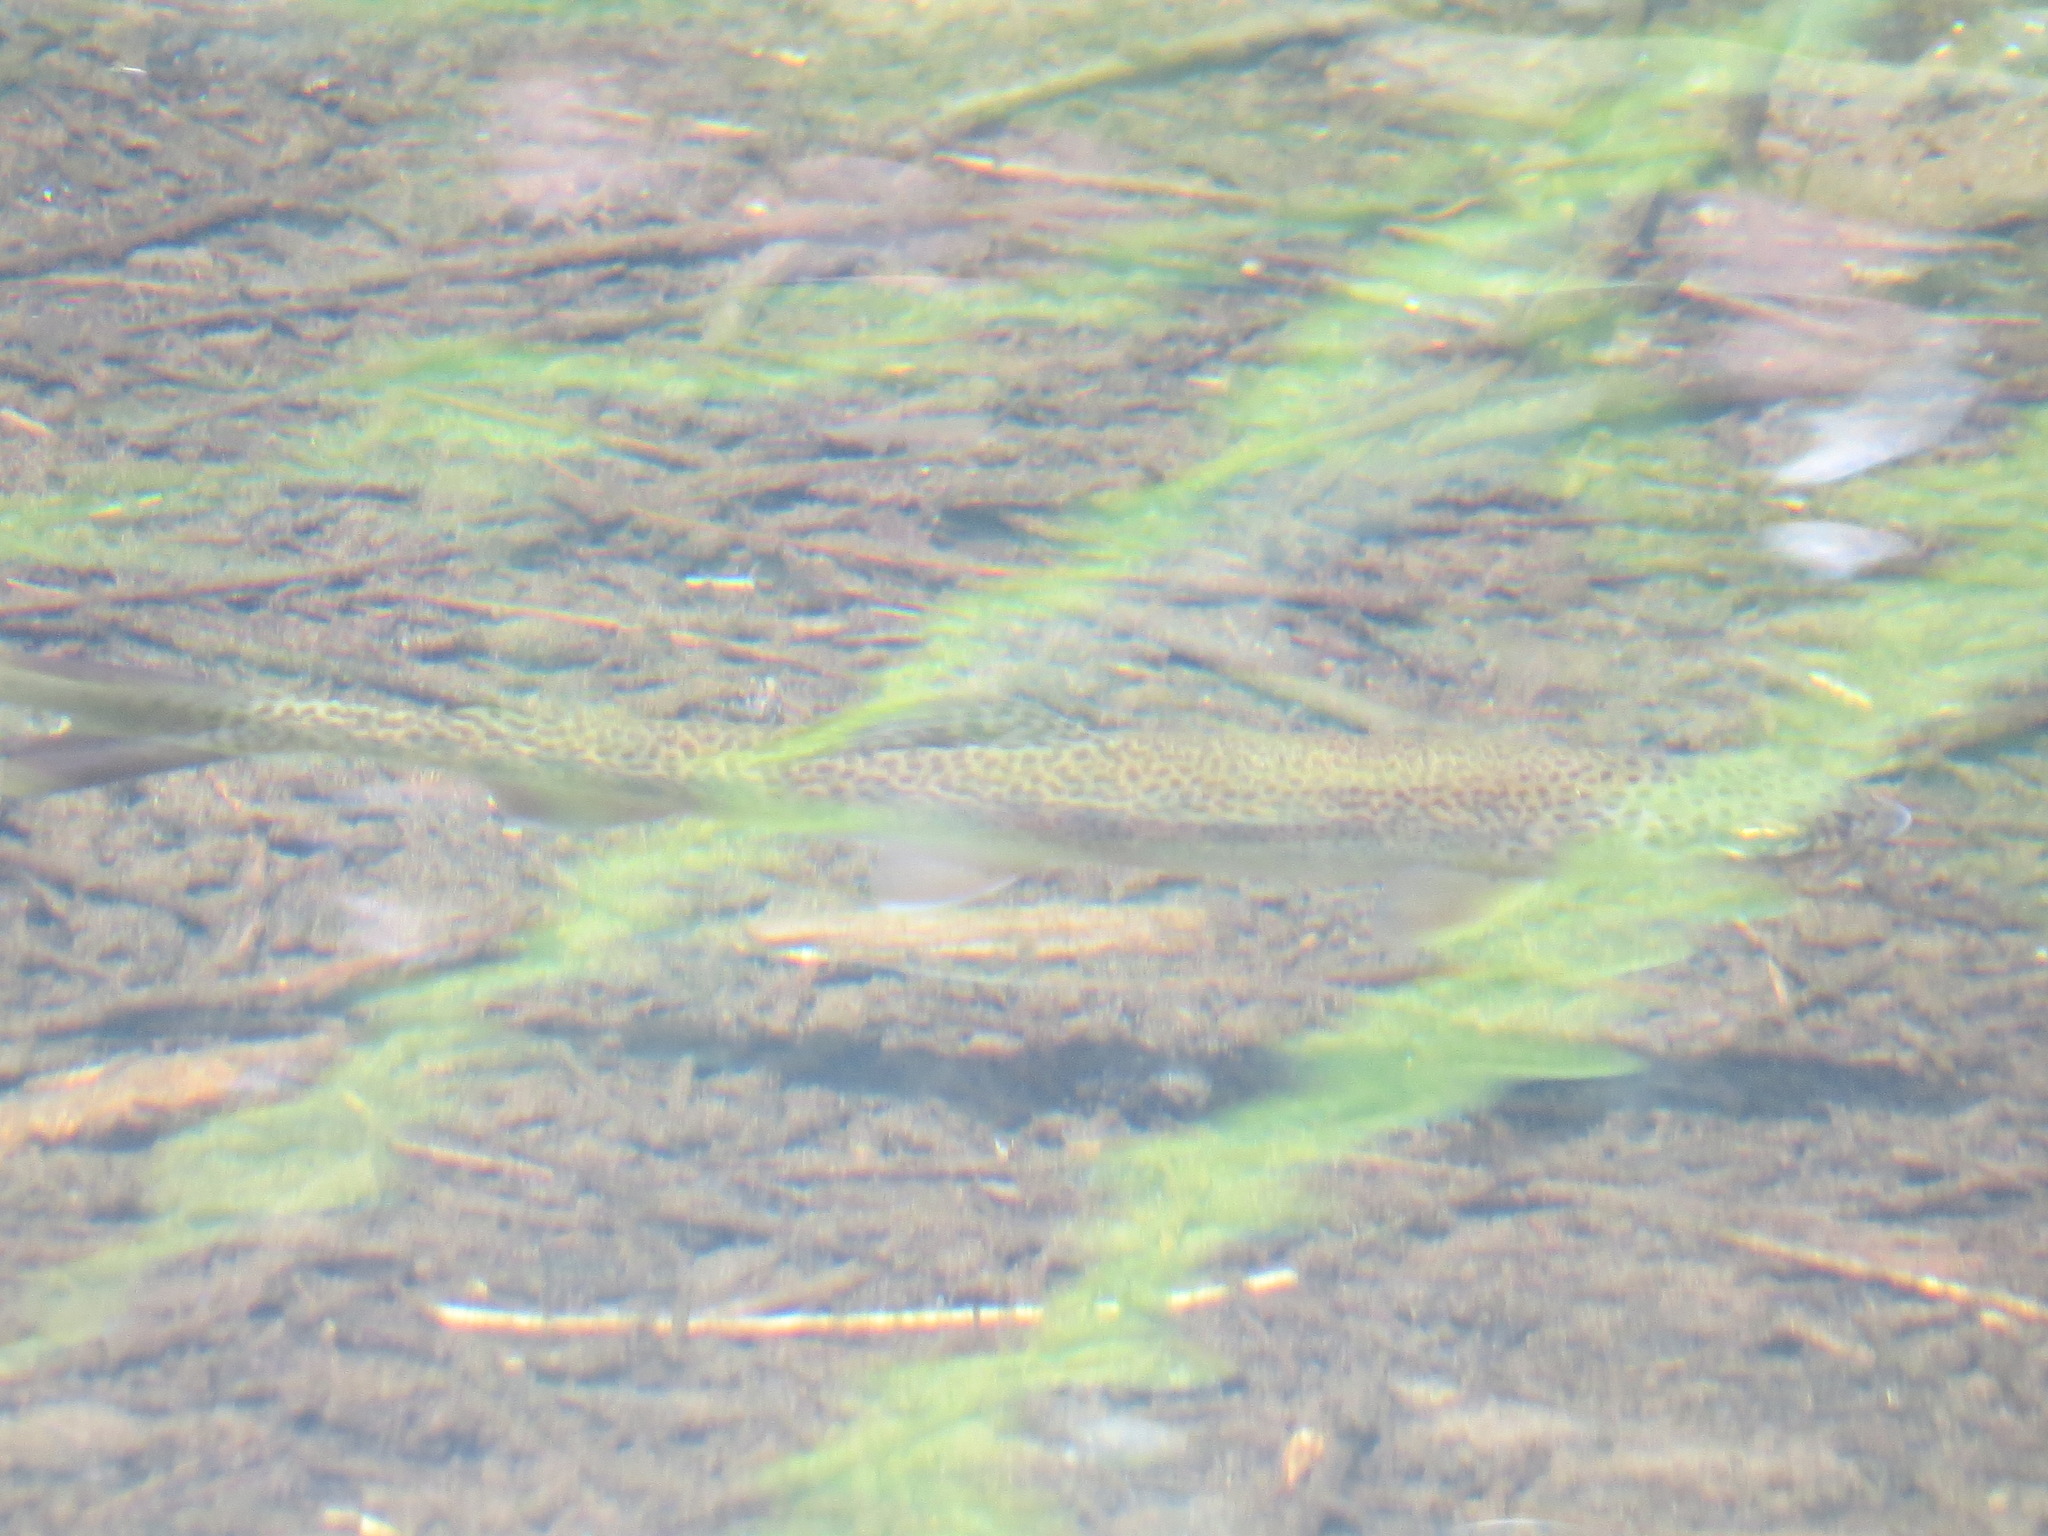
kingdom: Animalia
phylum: Chordata
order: Salmoniformes
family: Salmonidae
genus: Oncorhynchus
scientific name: Oncorhynchus mykiss
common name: Rainbow trout
